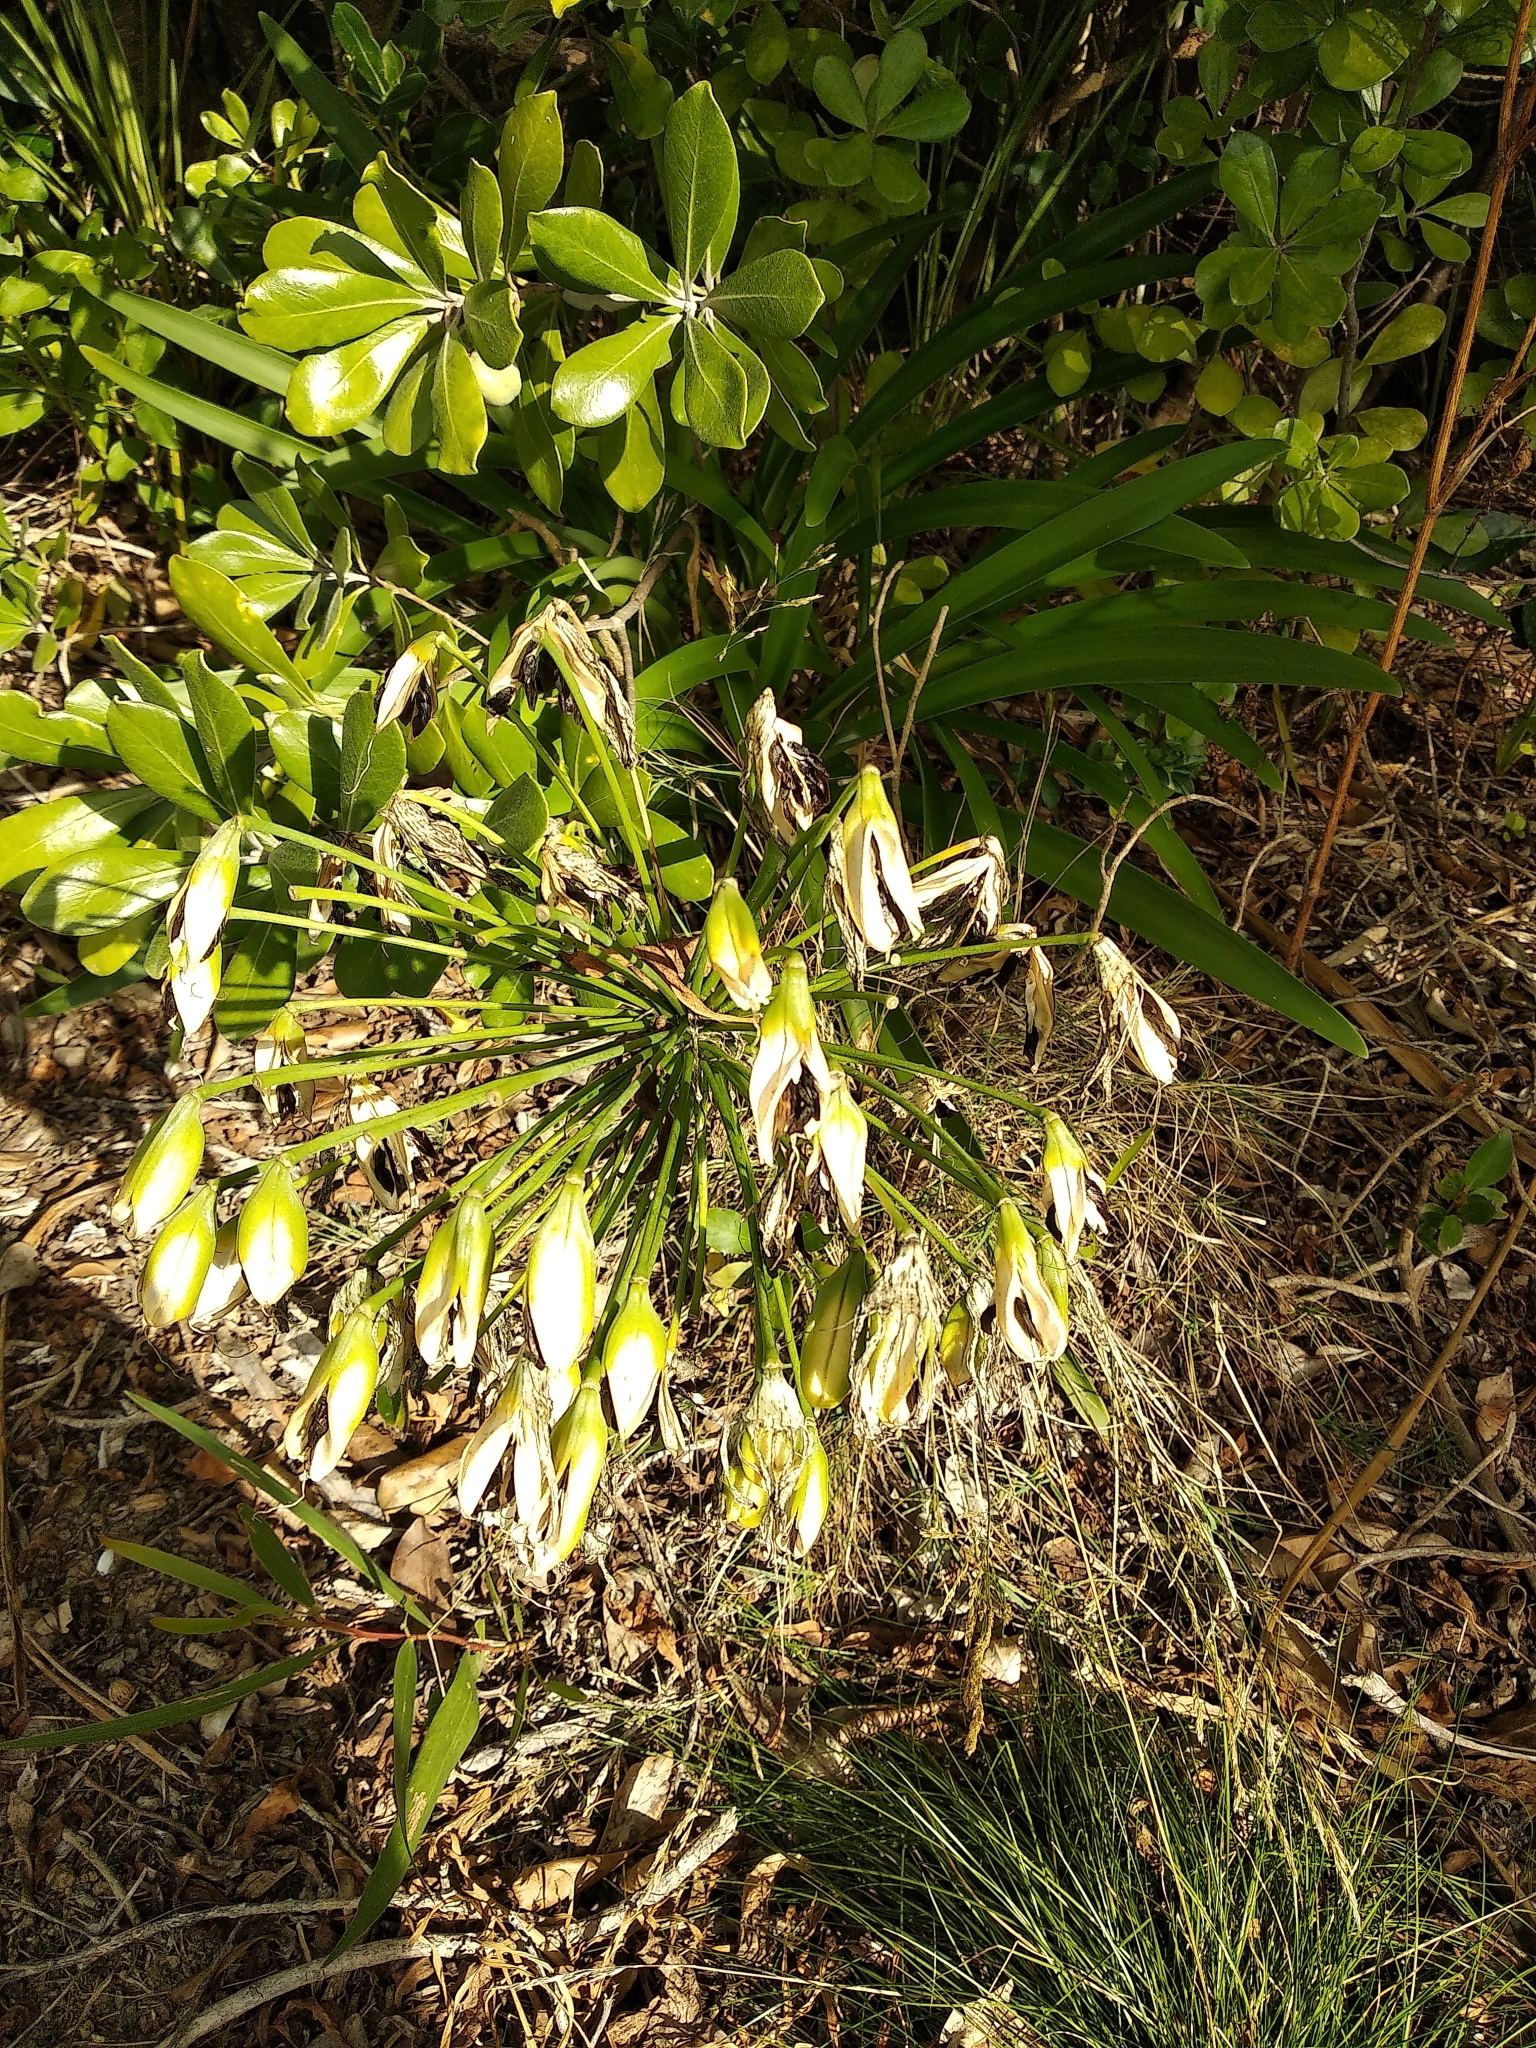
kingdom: Plantae
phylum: Tracheophyta
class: Liliopsida
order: Asparagales
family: Amaryllidaceae
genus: Agapanthus
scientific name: Agapanthus praecox
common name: African-lily
